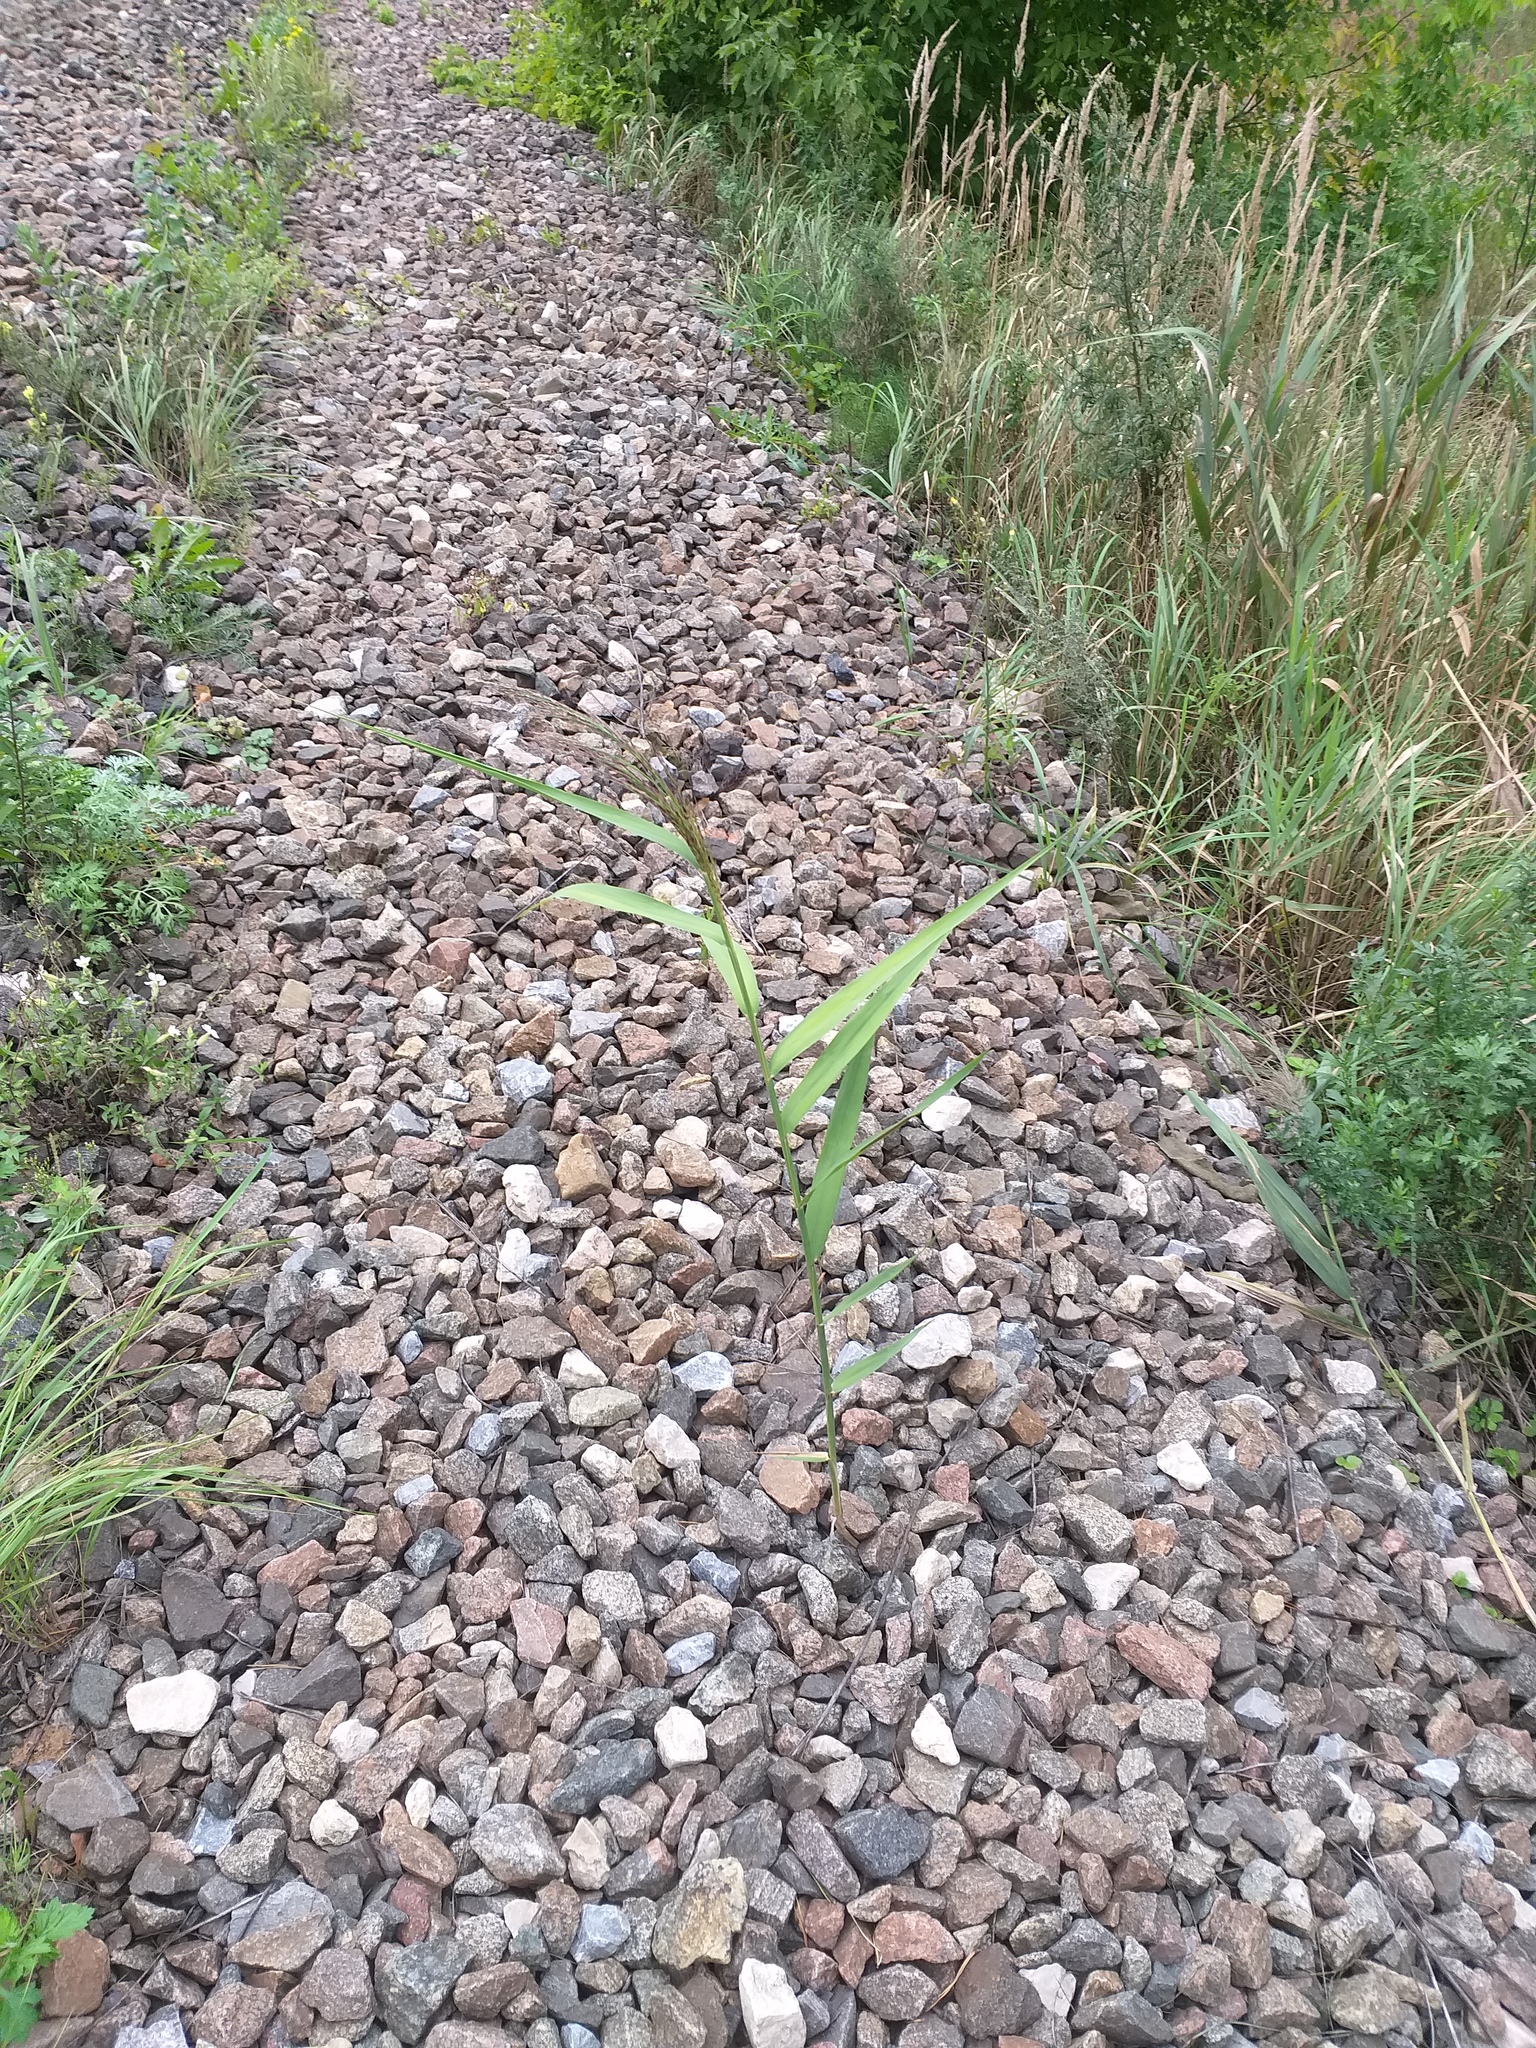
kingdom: Plantae
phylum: Tracheophyta
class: Liliopsida
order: Poales
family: Poaceae
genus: Phragmites
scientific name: Phragmites australis
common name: Common reed
